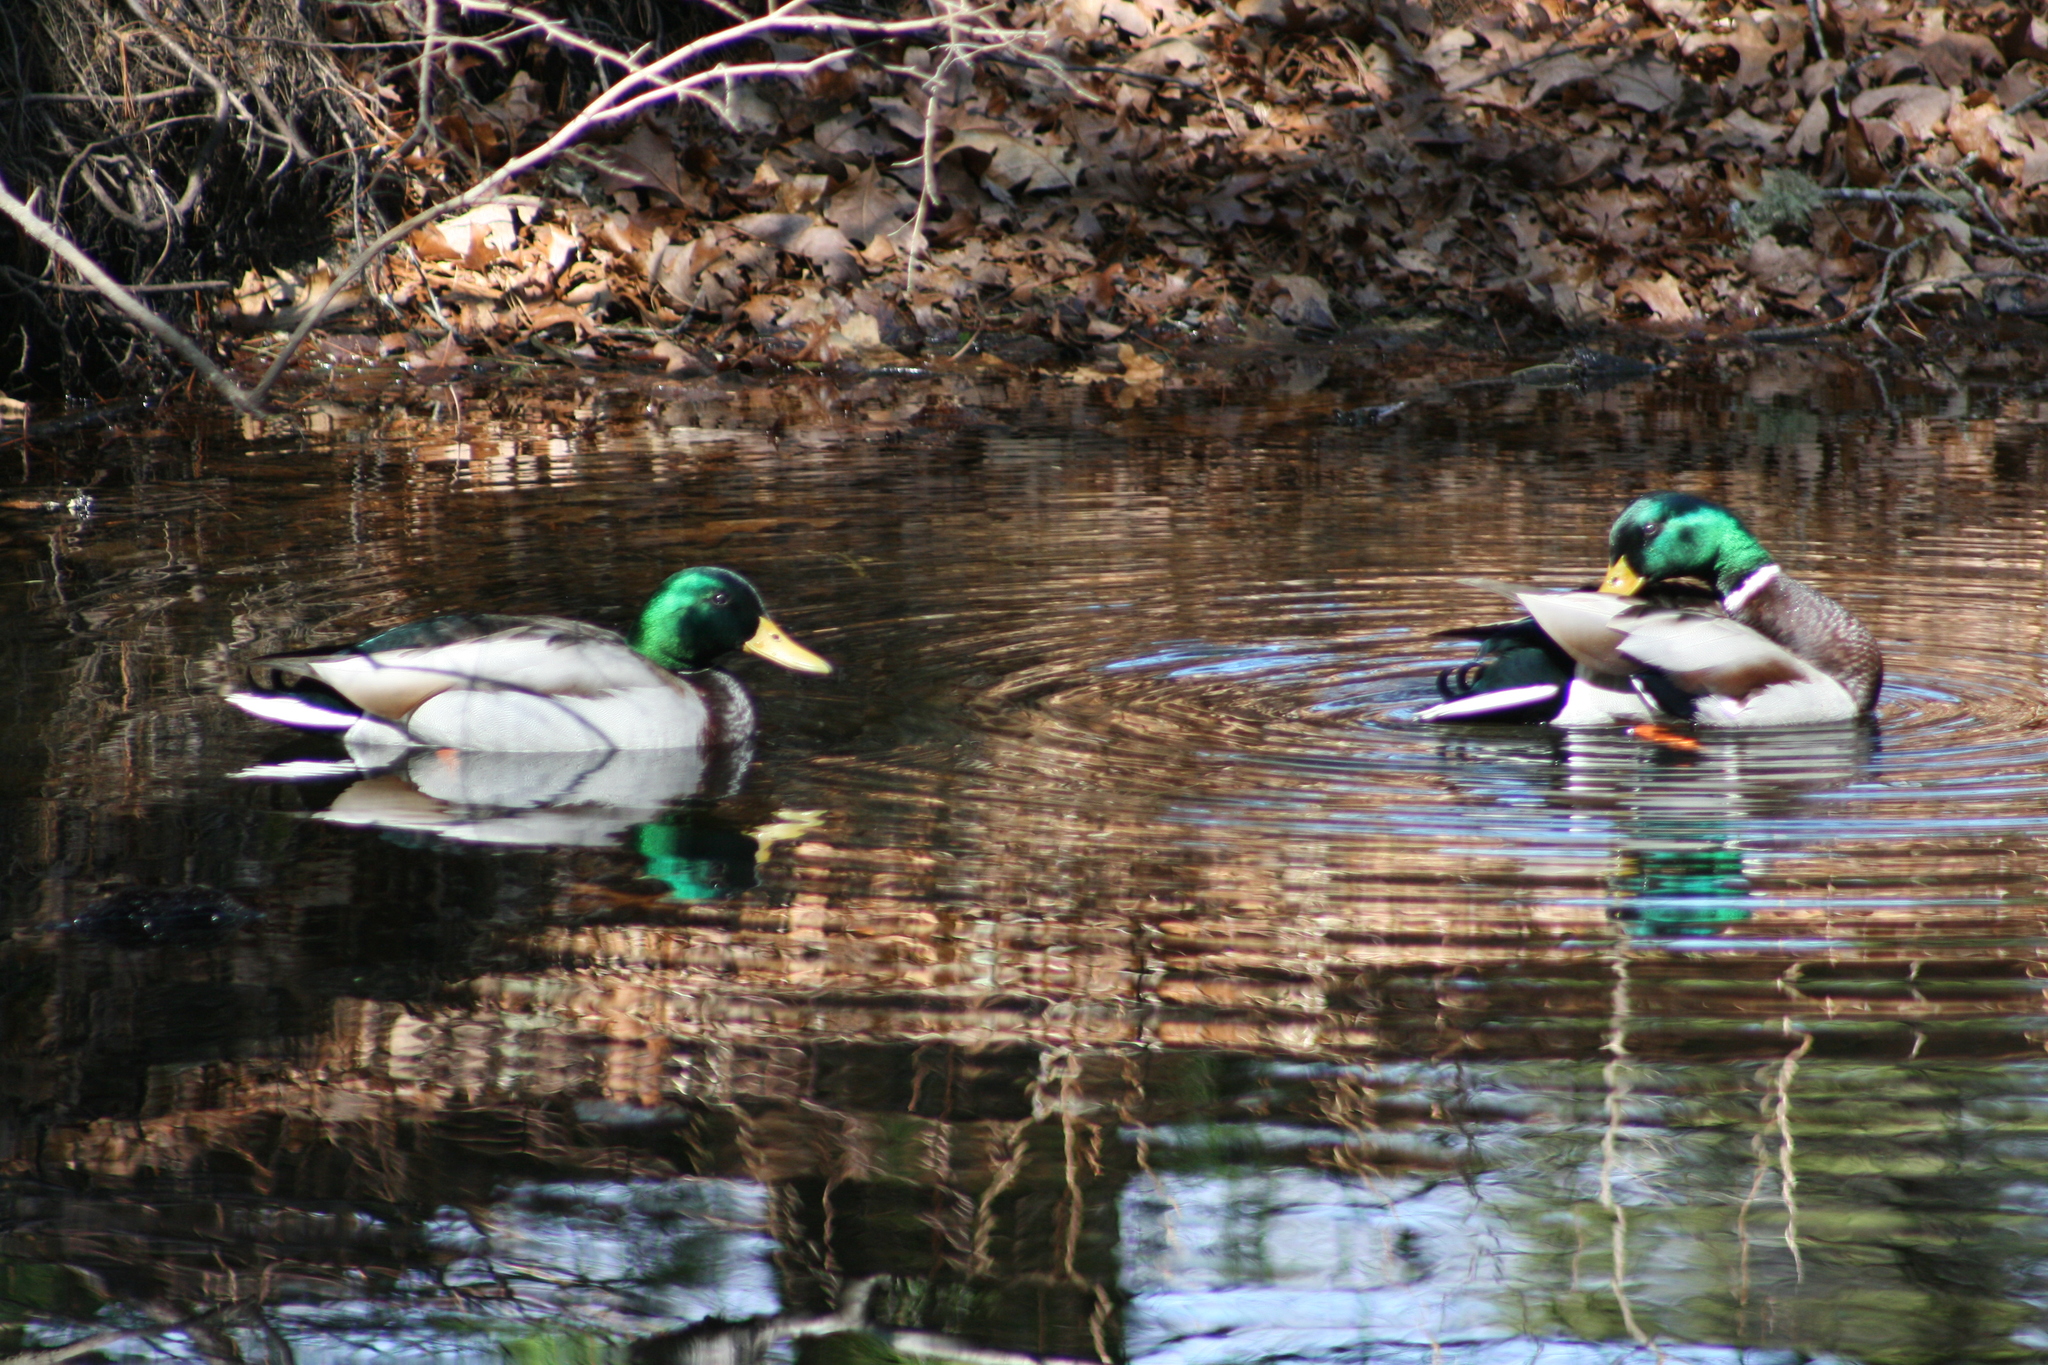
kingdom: Animalia
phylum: Chordata
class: Aves
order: Anseriformes
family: Anatidae
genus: Anas
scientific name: Anas platyrhynchos
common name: Mallard
